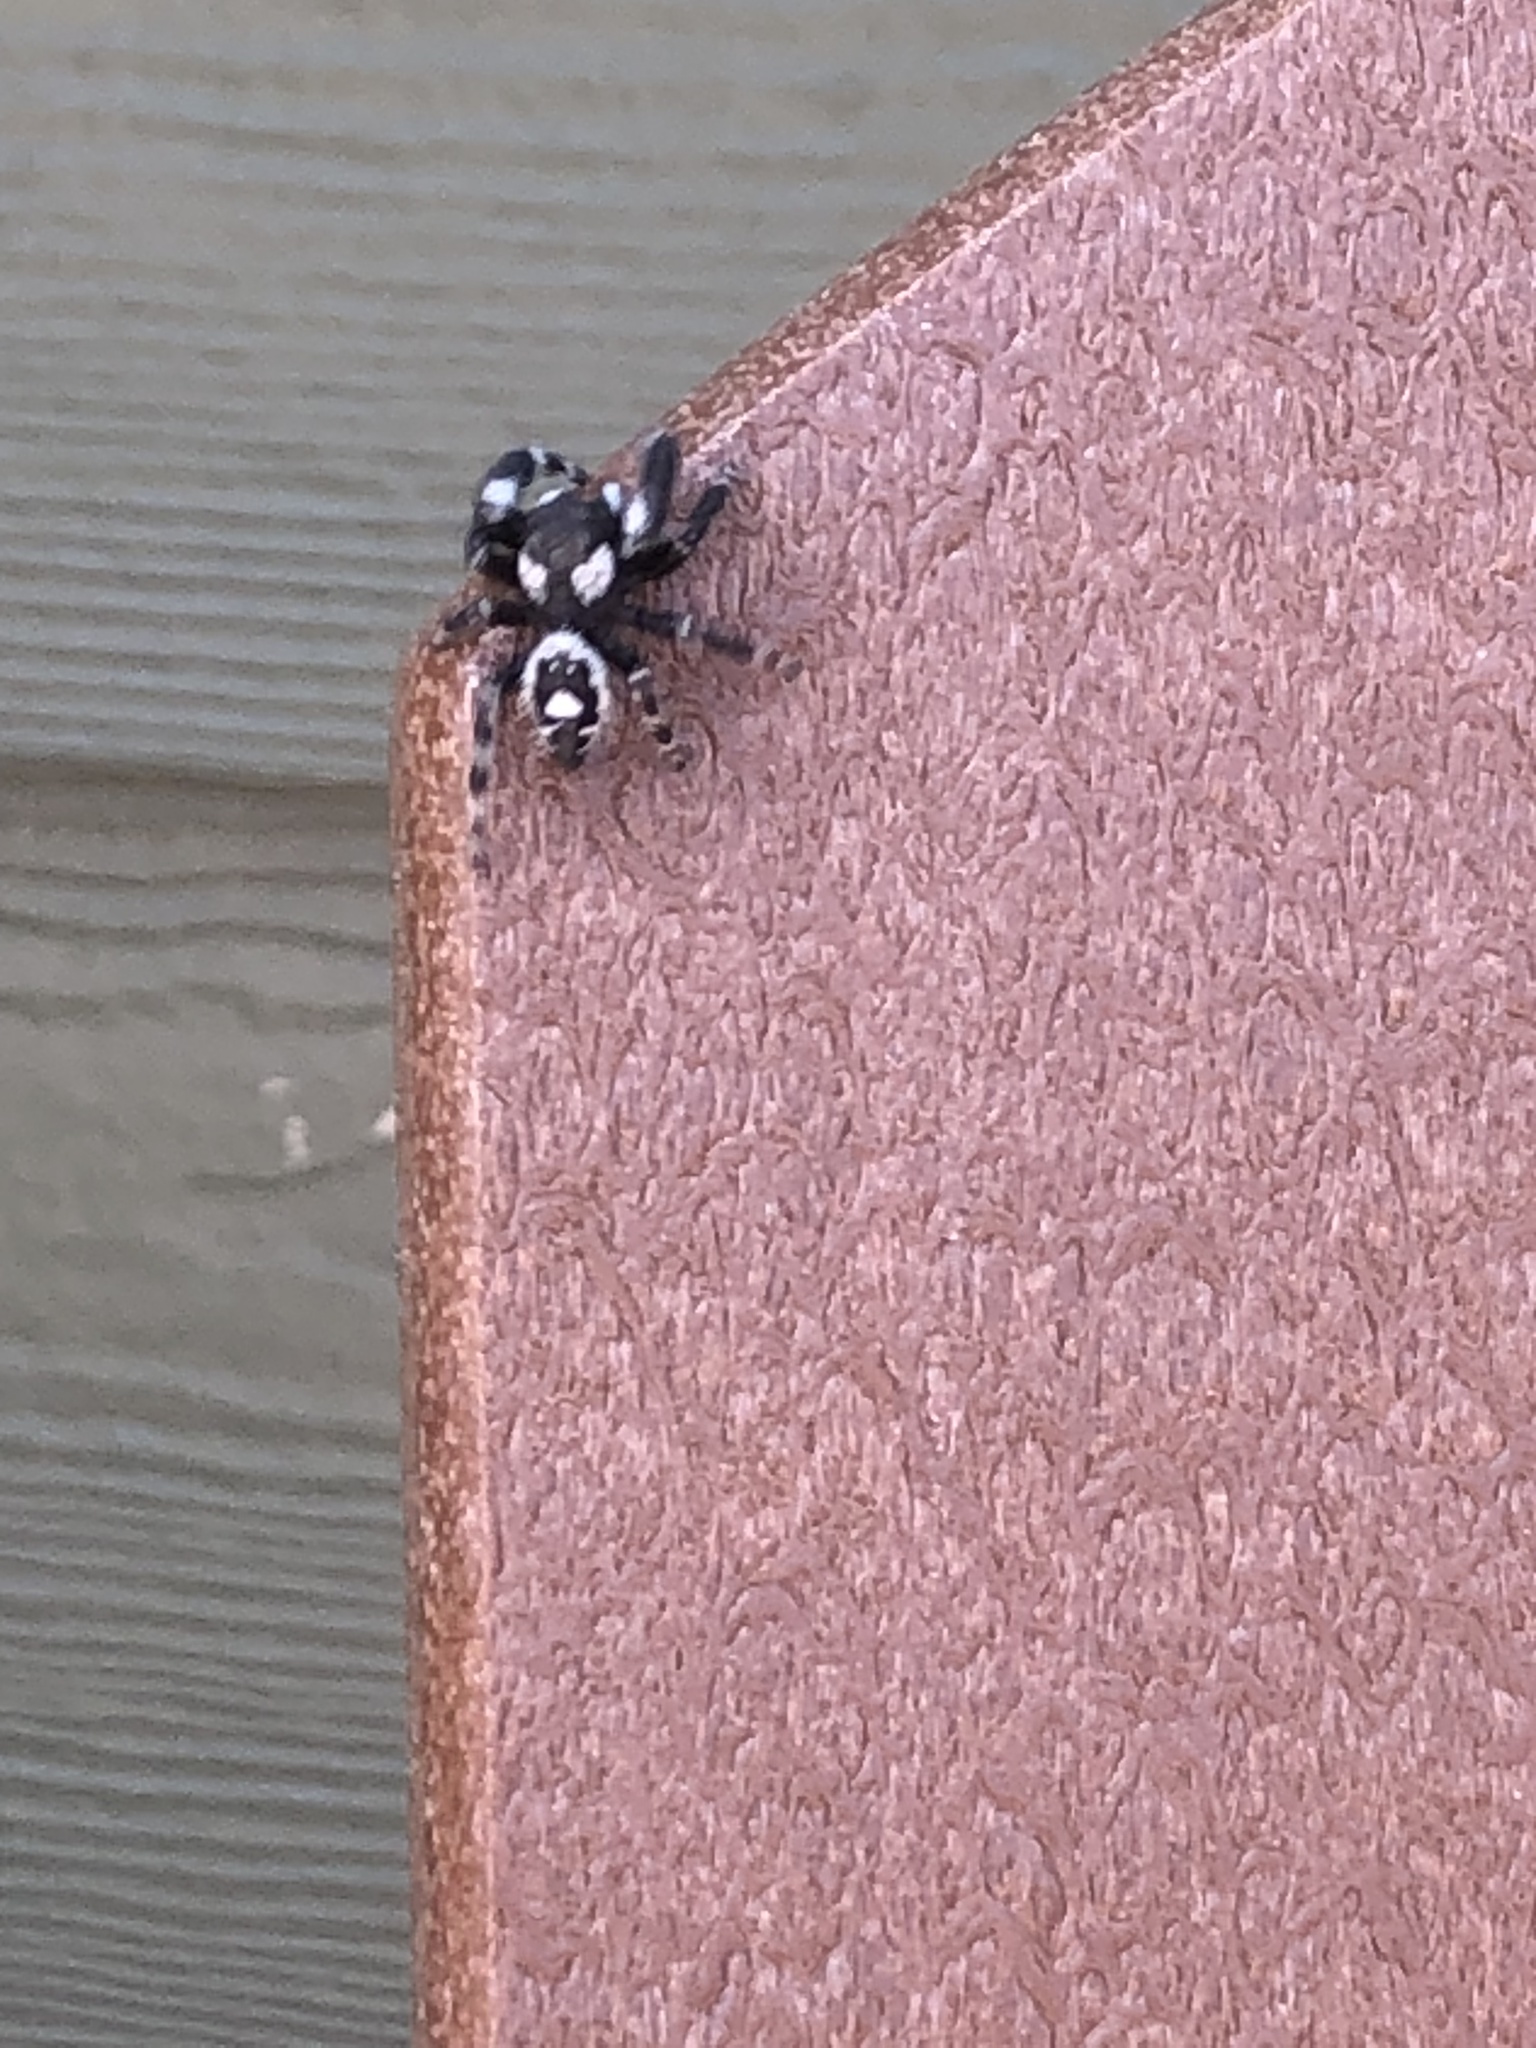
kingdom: Animalia
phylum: Arthropoda
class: Arachnida
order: Araneae
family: Salticidae
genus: Phidippus
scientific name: Phidippus audax
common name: Bold jumper
